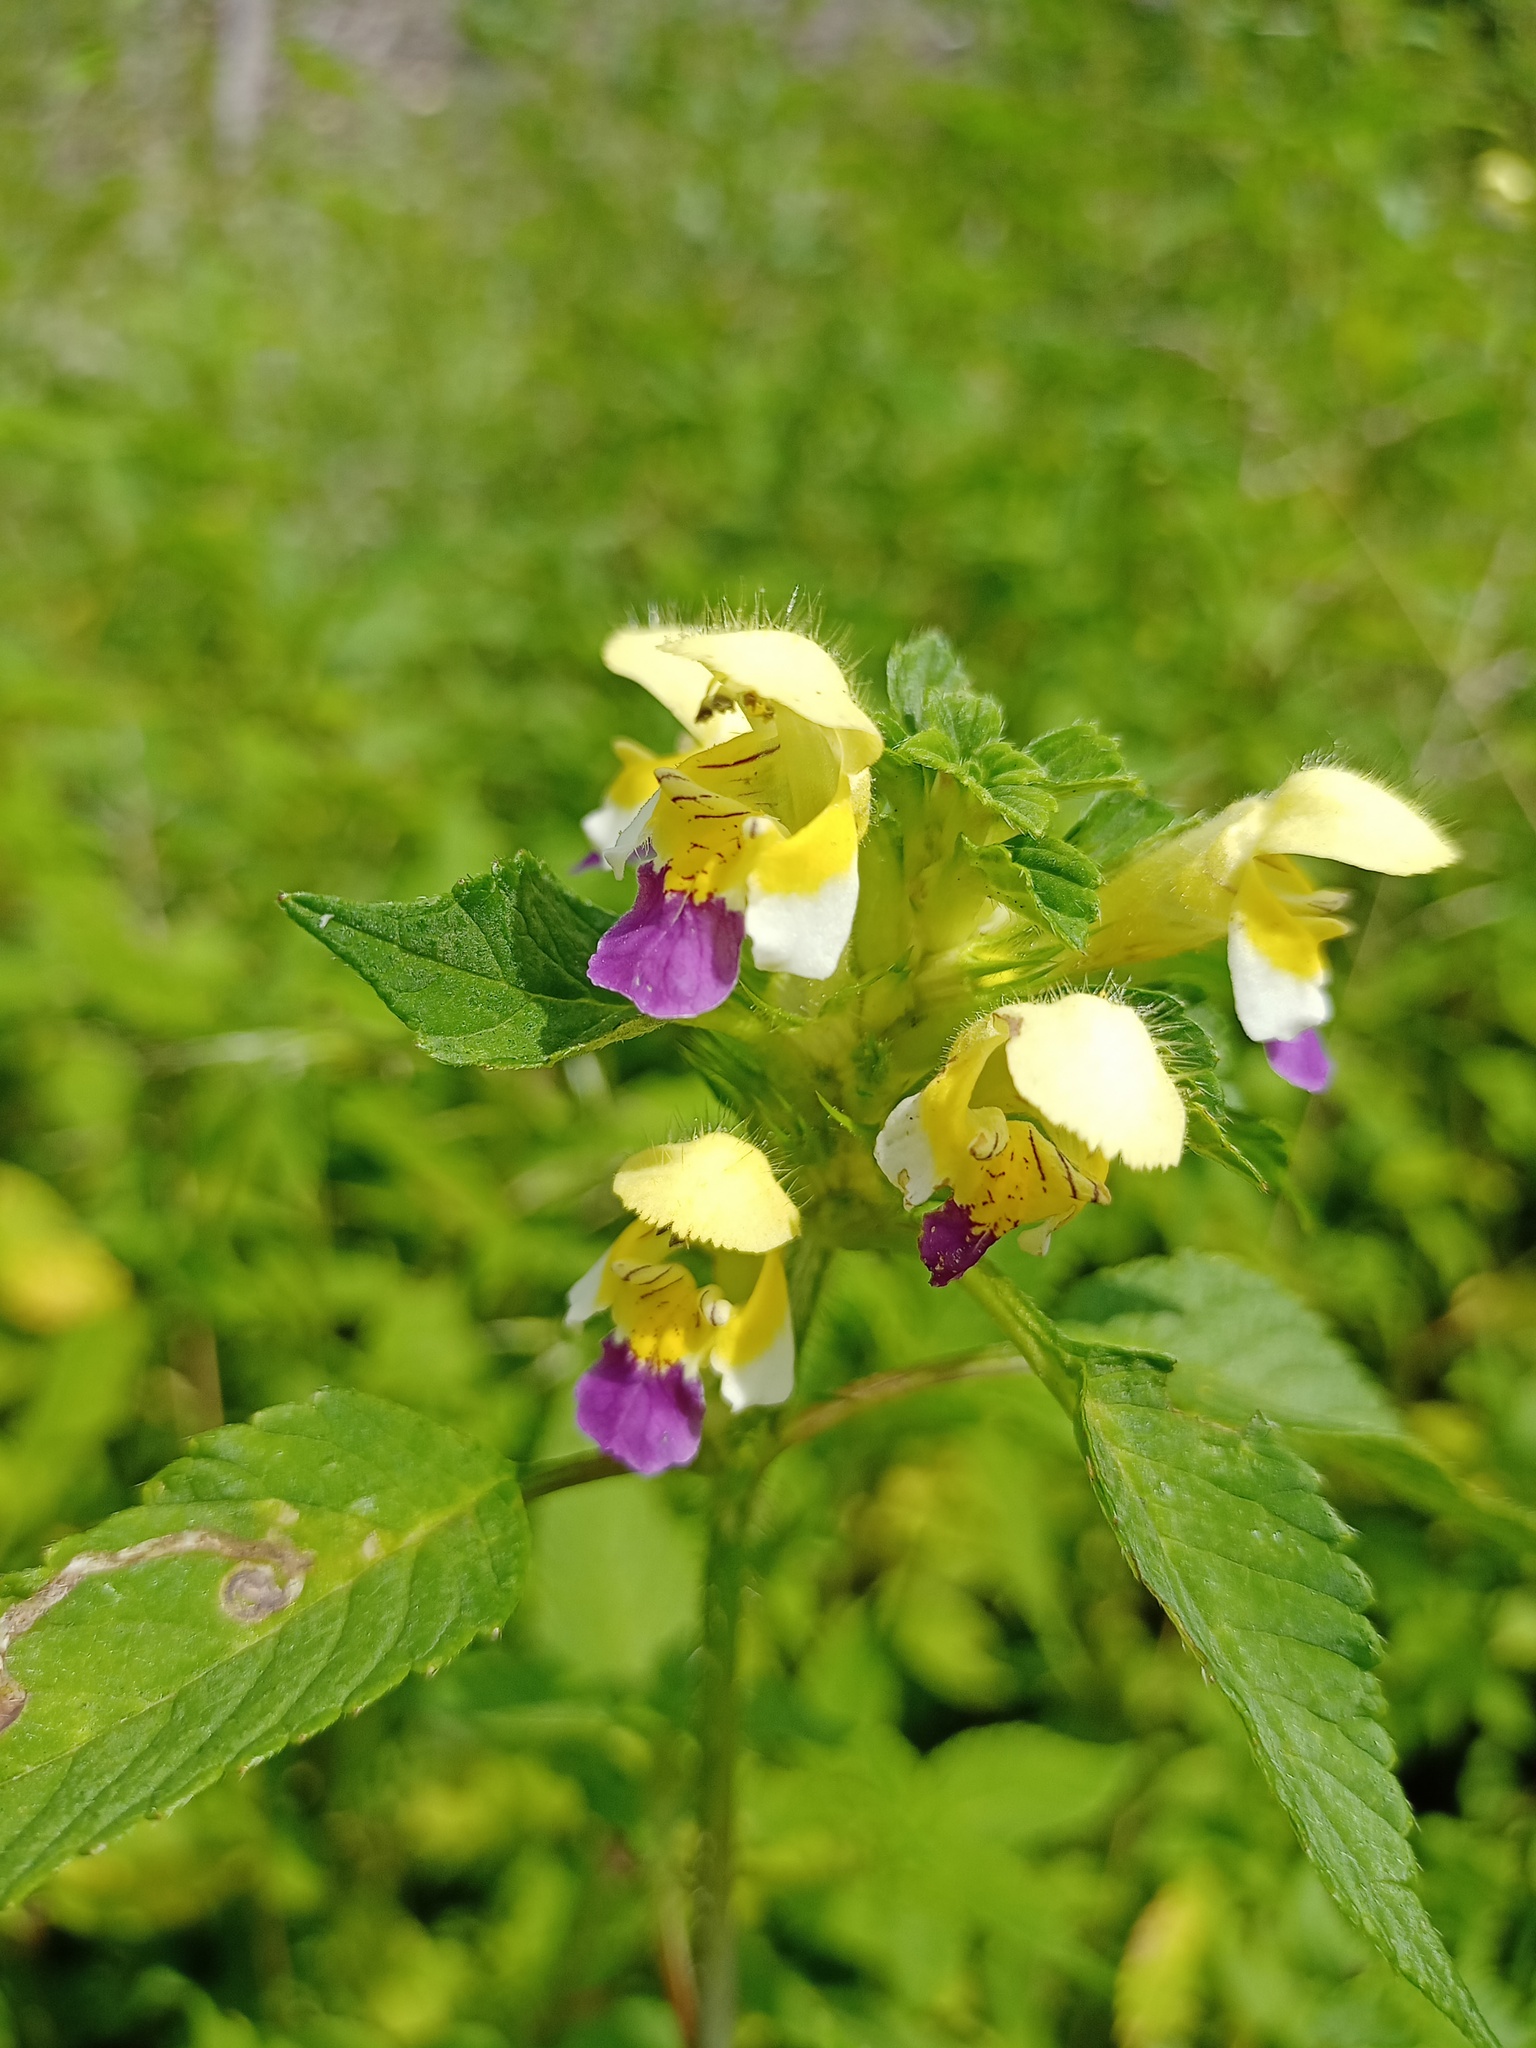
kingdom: Plantae
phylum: Tracheophyta
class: Magnoliopsida
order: Lamiales
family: Lamiaceae
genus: Galeopsis
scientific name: Galeopsis speciosa
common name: Large-flowered hemp-nettle
